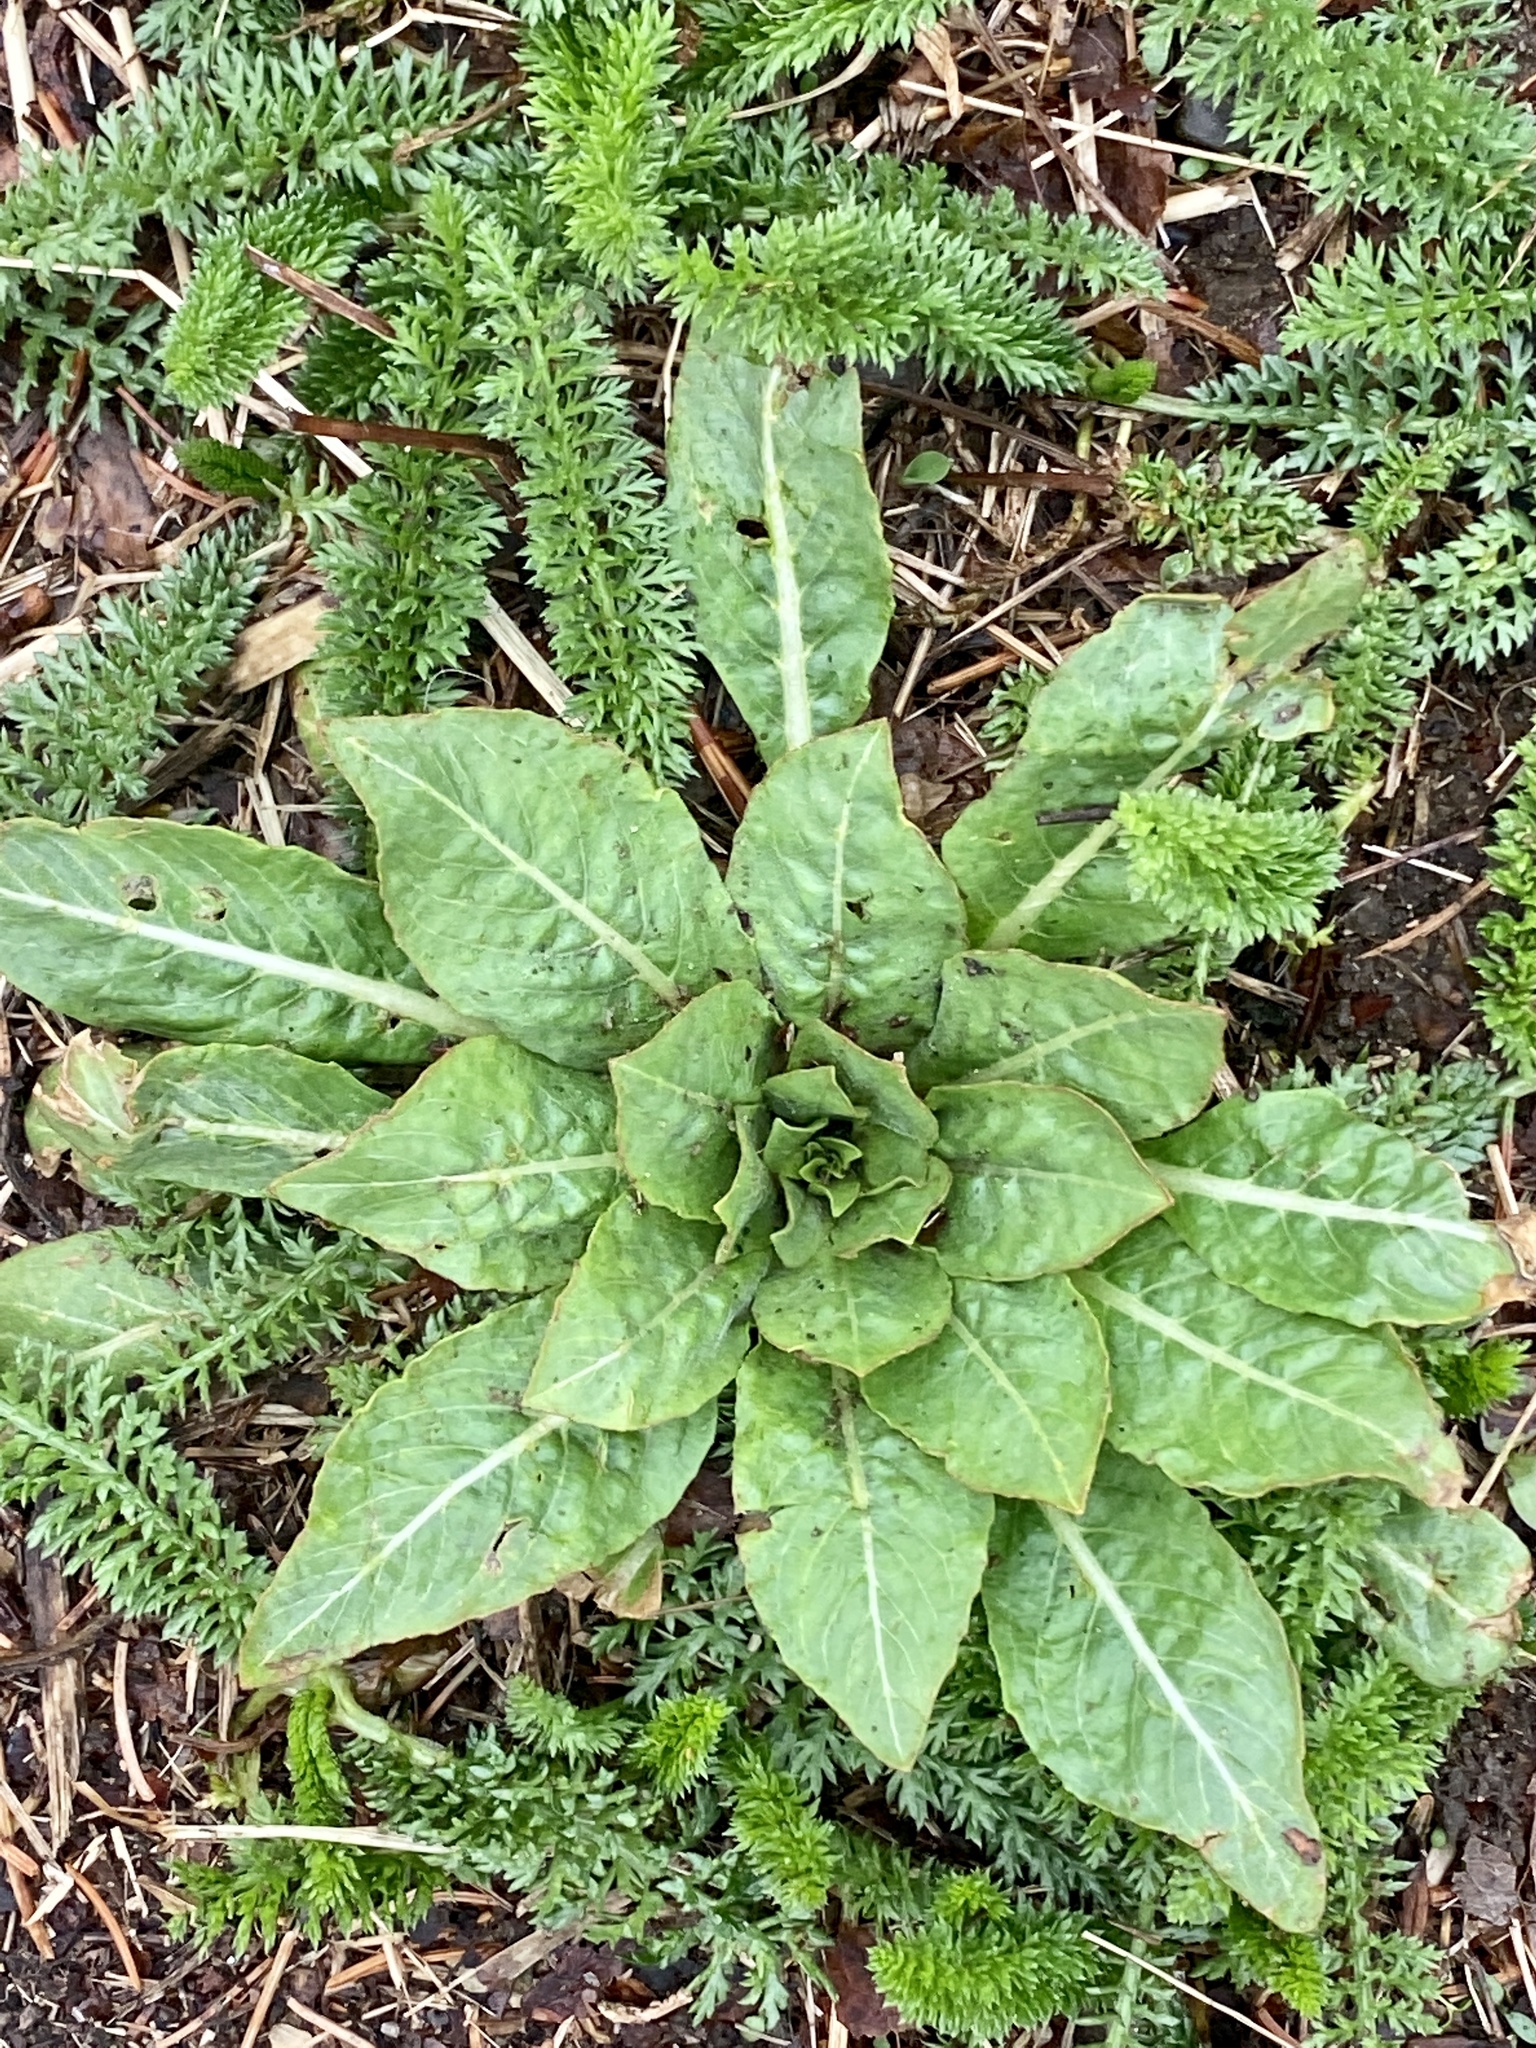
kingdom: Plantae
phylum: Tracheophyta
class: Magnoliopsida
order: Myrtales
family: Onagraceae
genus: Oenothera
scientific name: Oenothera biennis
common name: Common evening-primrose
